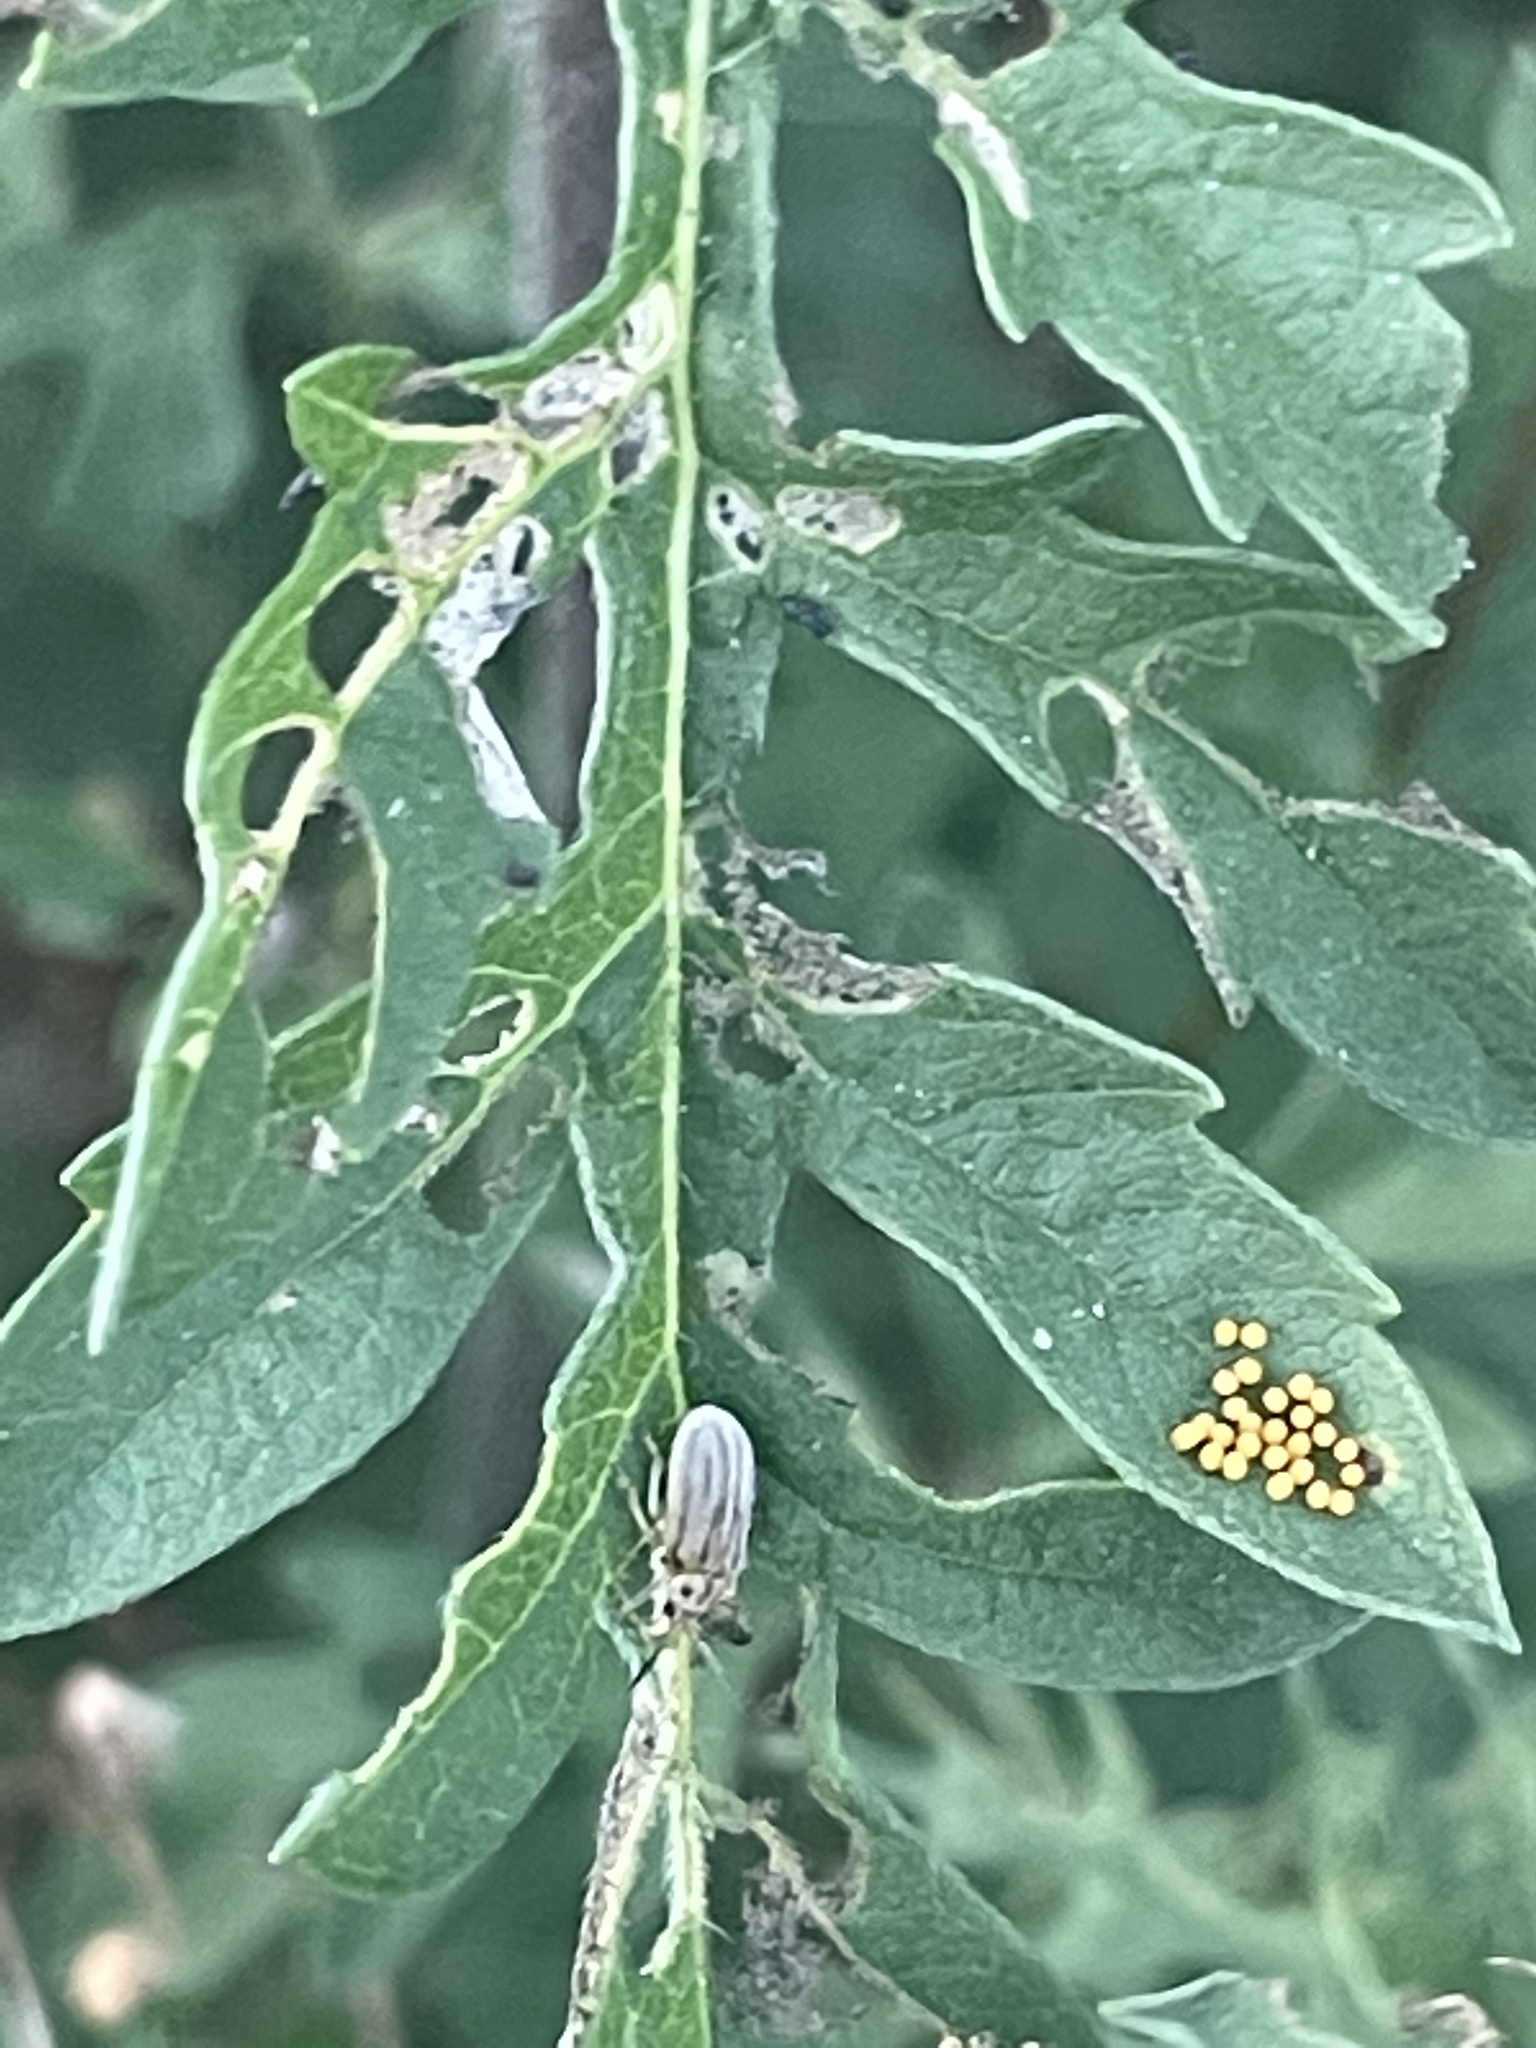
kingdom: Animalia
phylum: Arthropoda
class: Insecta
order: Coleoptera
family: Chrysomelidae
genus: Ophraella
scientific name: Ophraella communa
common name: Ragweed leaf beetle
